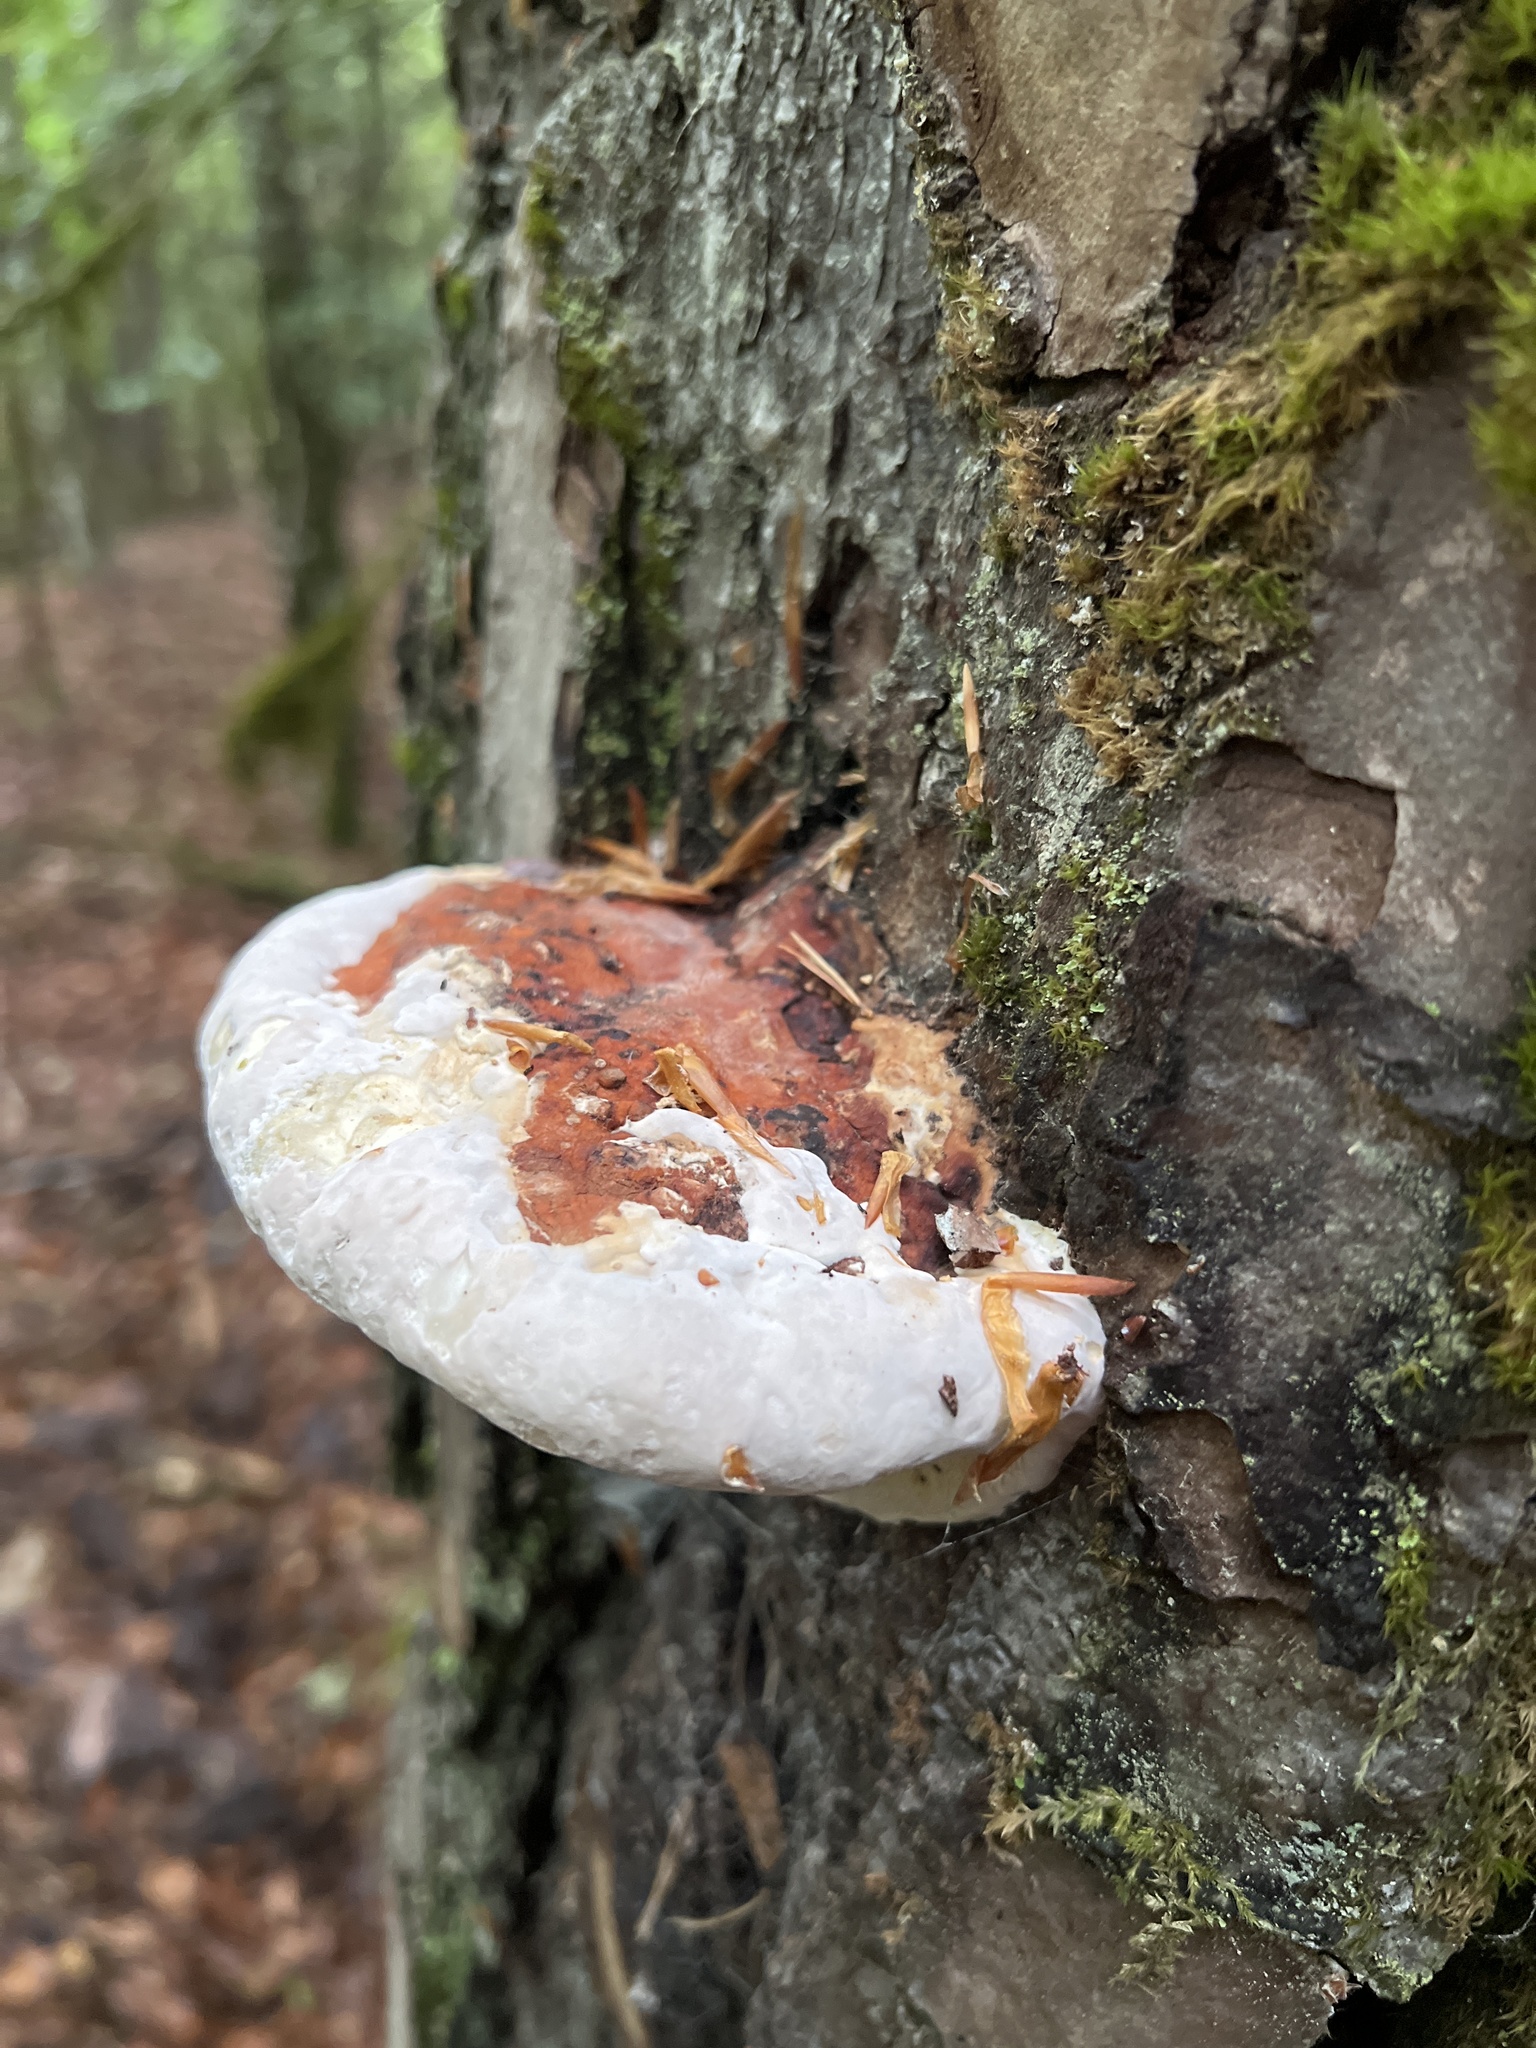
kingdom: Fungi
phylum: Basidiomycota
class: Agaricomycetes
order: Polyporales
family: Fomitopsidaceae
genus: Fomitopsis
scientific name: Fomitopsis pinicola
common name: Red-belted bracket
